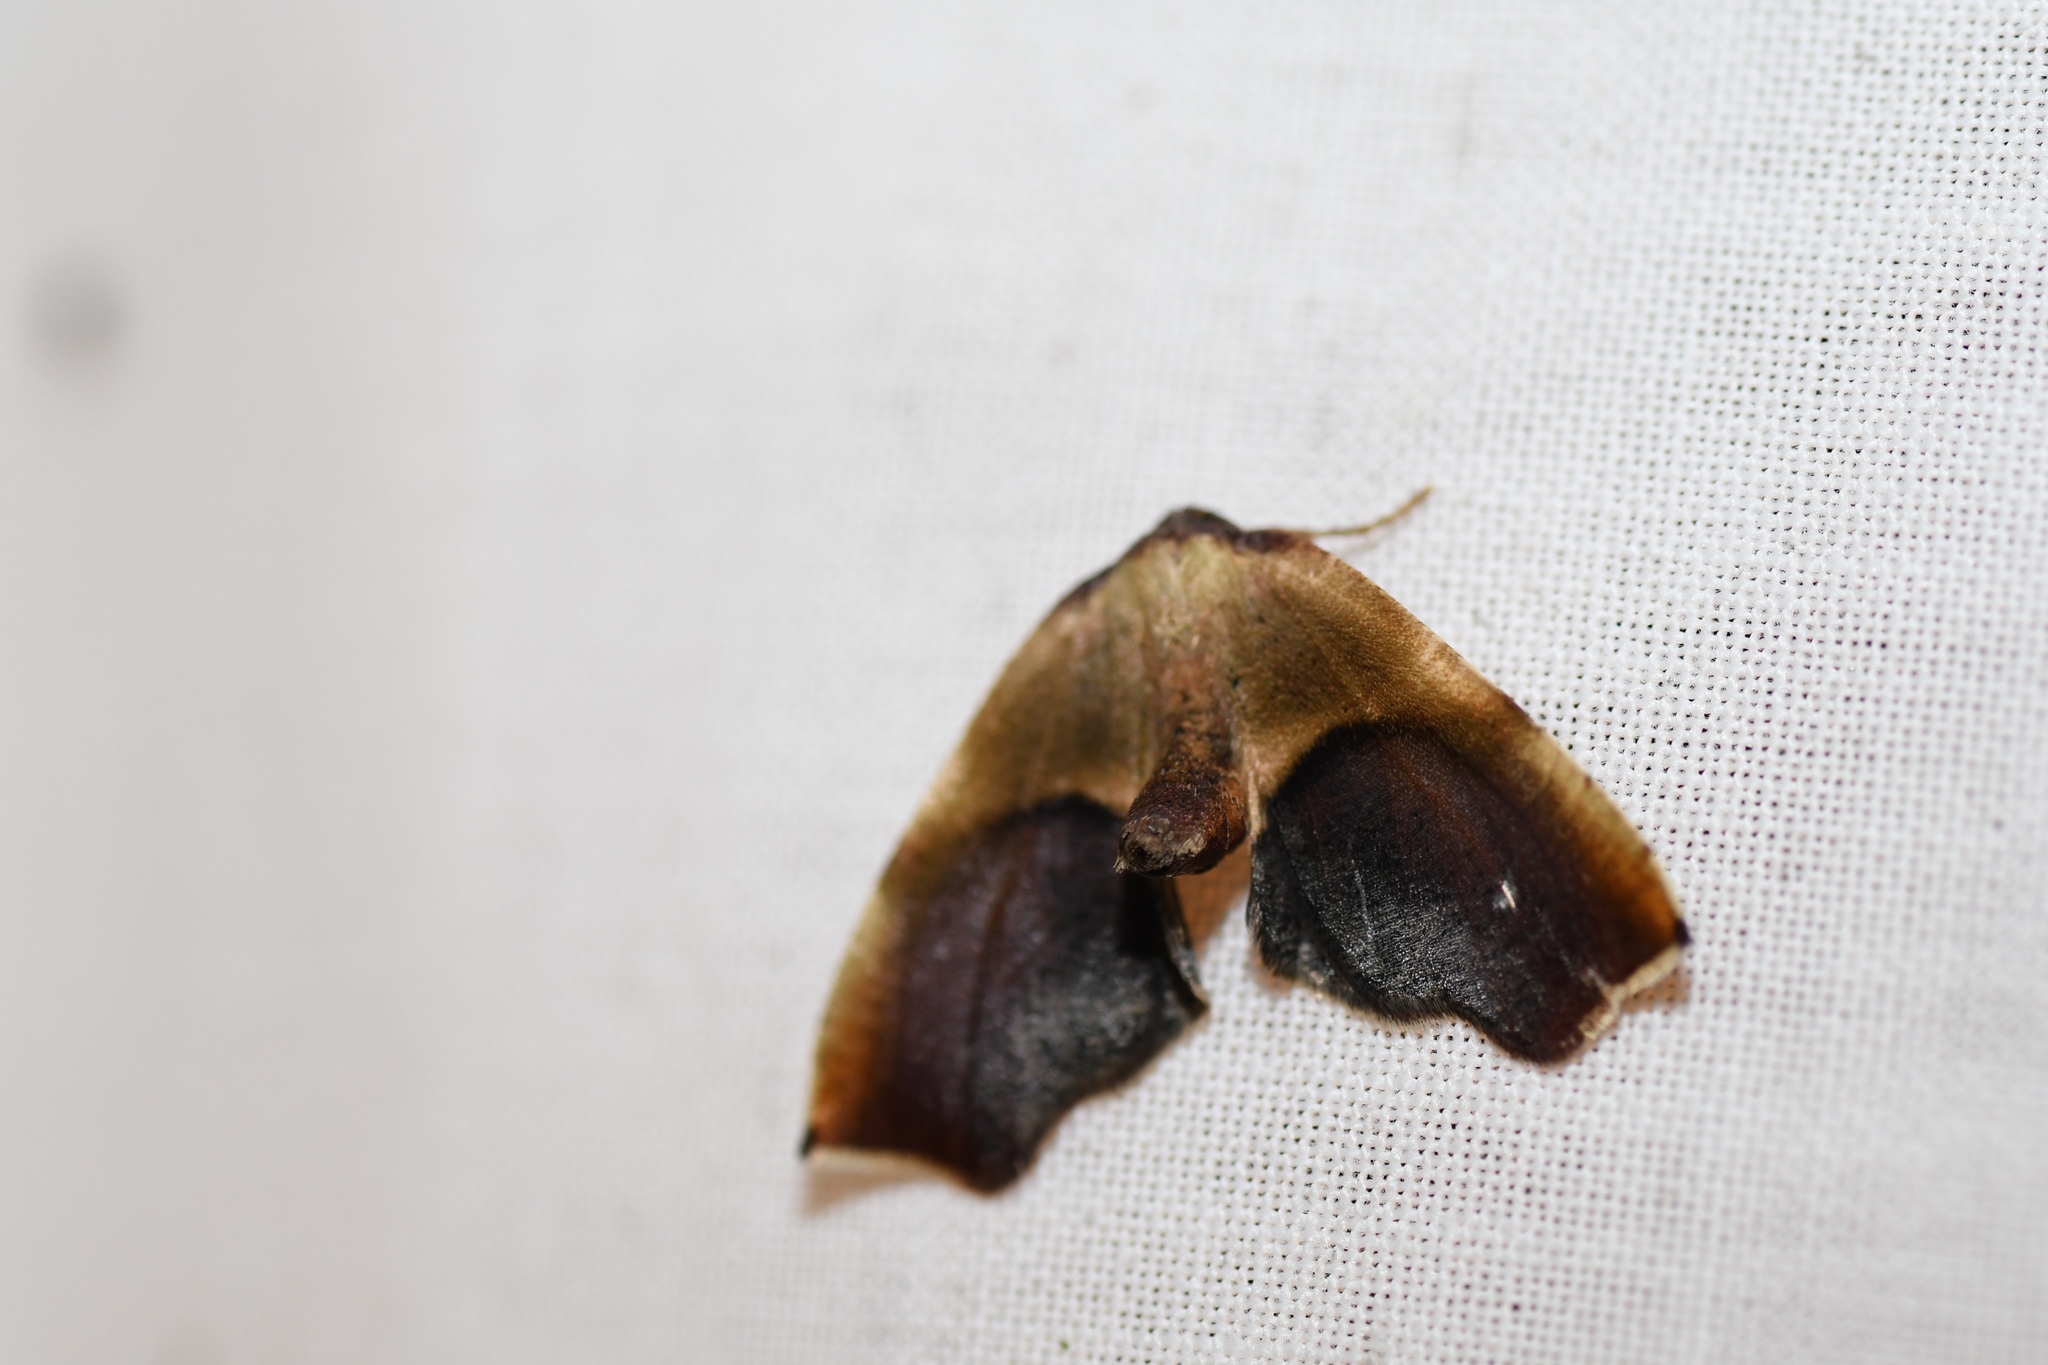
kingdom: Animalia
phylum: Arthropoda
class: Insecta
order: Lepidoptera
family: Geometridae
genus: Plagodis
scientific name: Plagodis kuetzingi
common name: Purple plagodis
